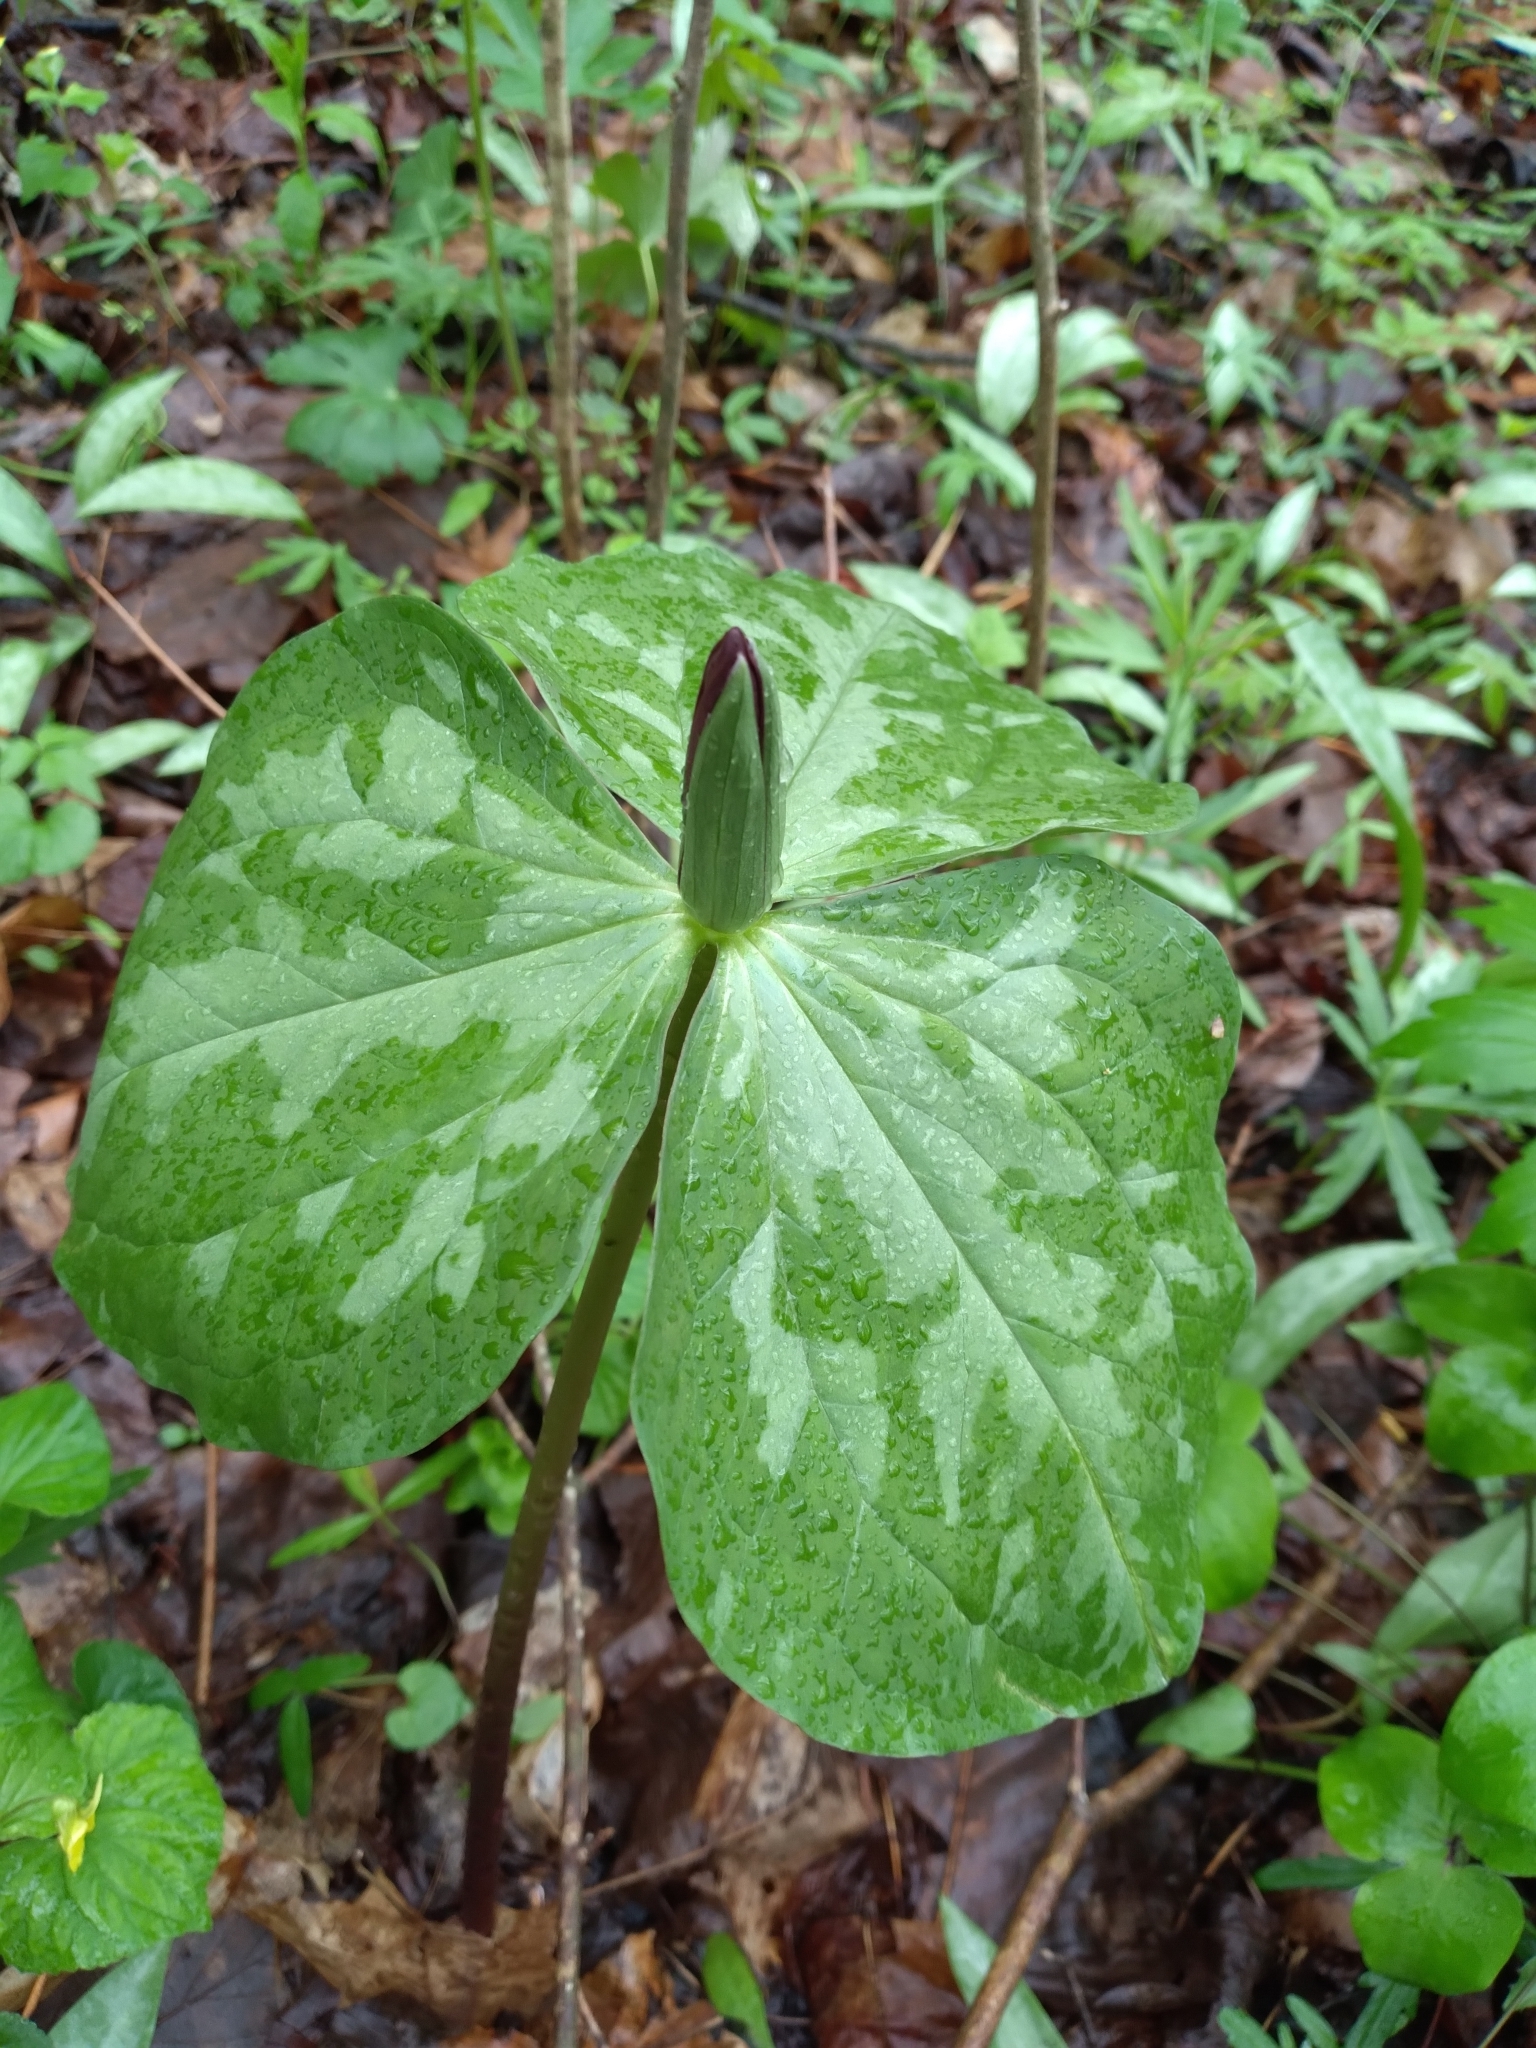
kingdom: Plantae
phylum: Tracheophyta
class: Liliopsida
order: Liliales
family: Melanthiaceae
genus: Trillium
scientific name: Trillium cuneatum
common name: Cuneate trillium
